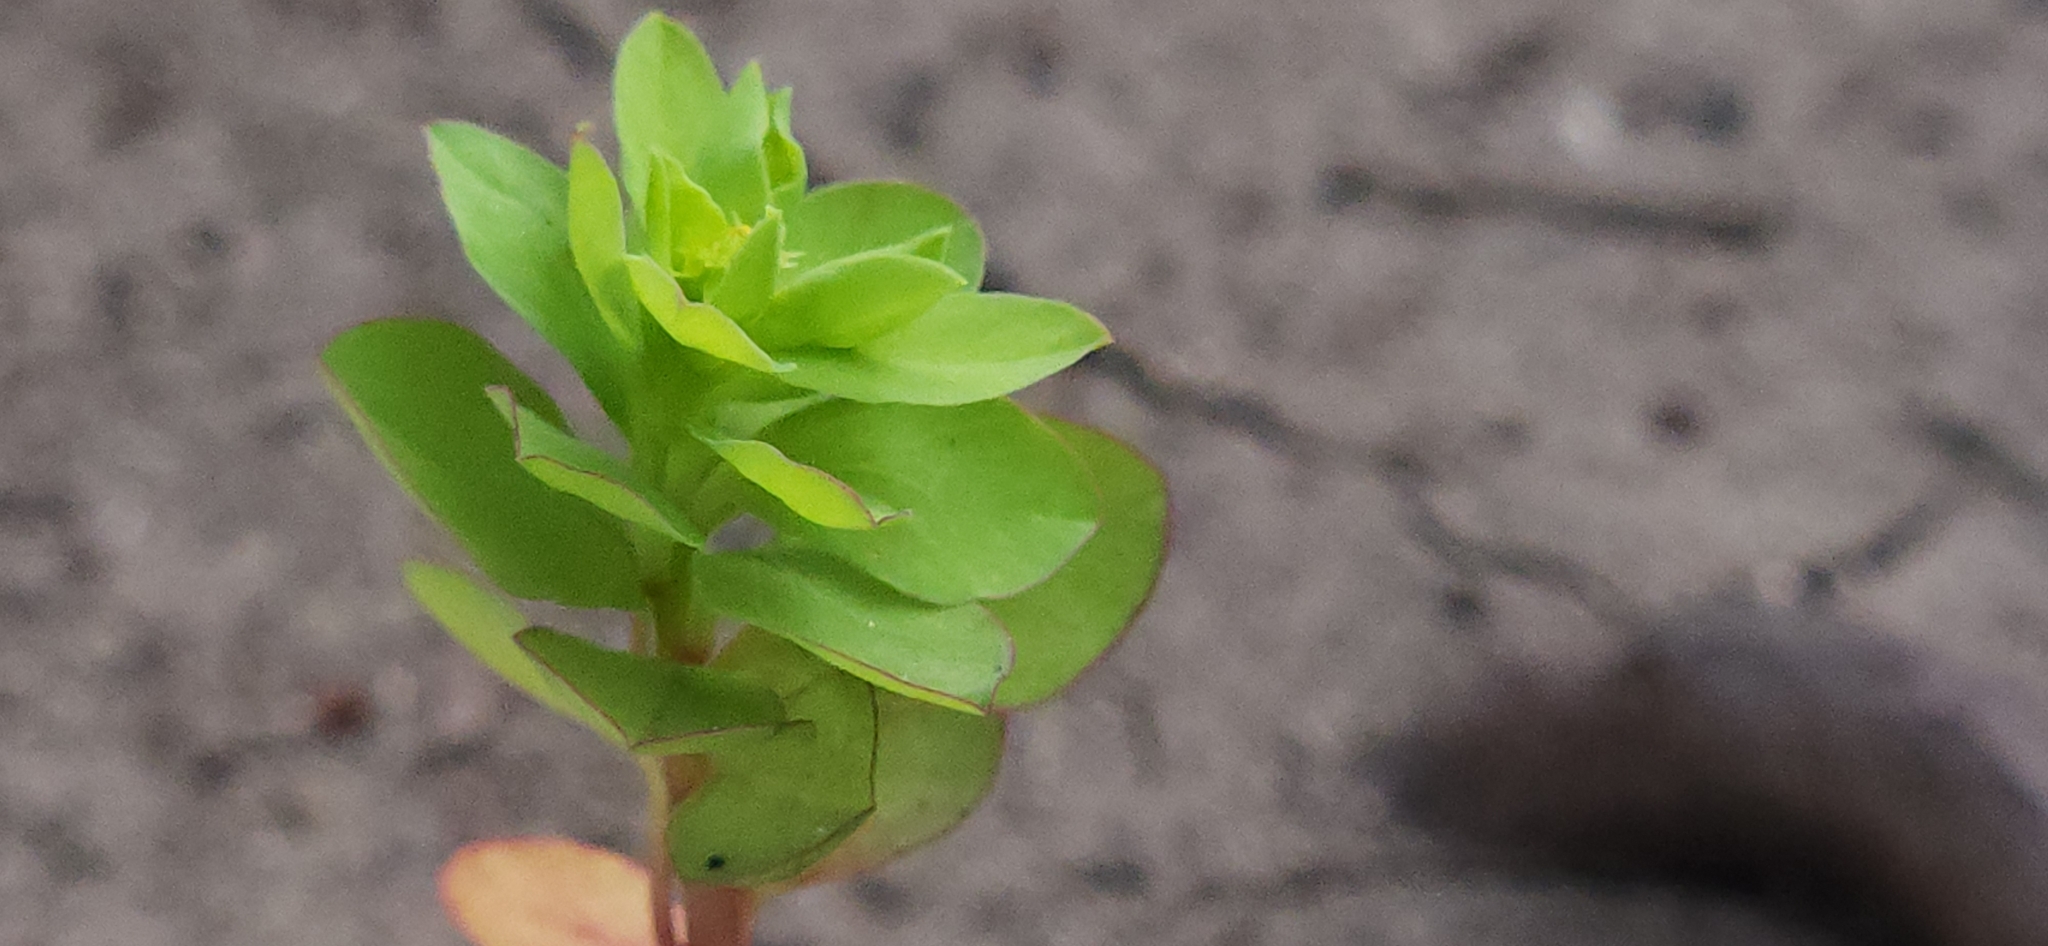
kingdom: Plantae
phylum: Tracheophyta
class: Magnoliopsida
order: Malpighiales
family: Euphorbiaceae
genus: Euphorbia
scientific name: Euphorbia peplus
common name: Petty spurge
